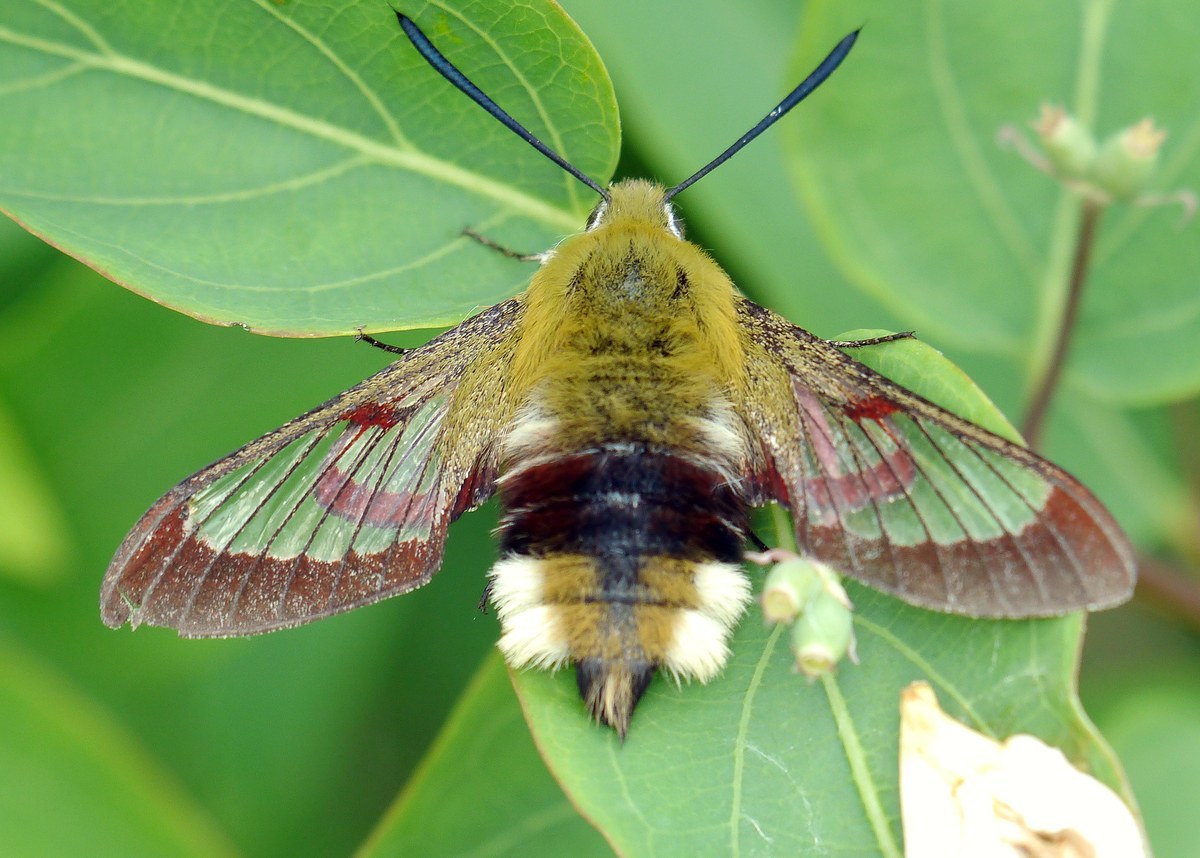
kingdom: Animalia
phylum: Arthropoda
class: Insecta
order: Lepidoptera
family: Sphingidae
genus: Hemaris
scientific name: Hemaris fuciformis
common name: Broad-bordered bee hawk-moth
